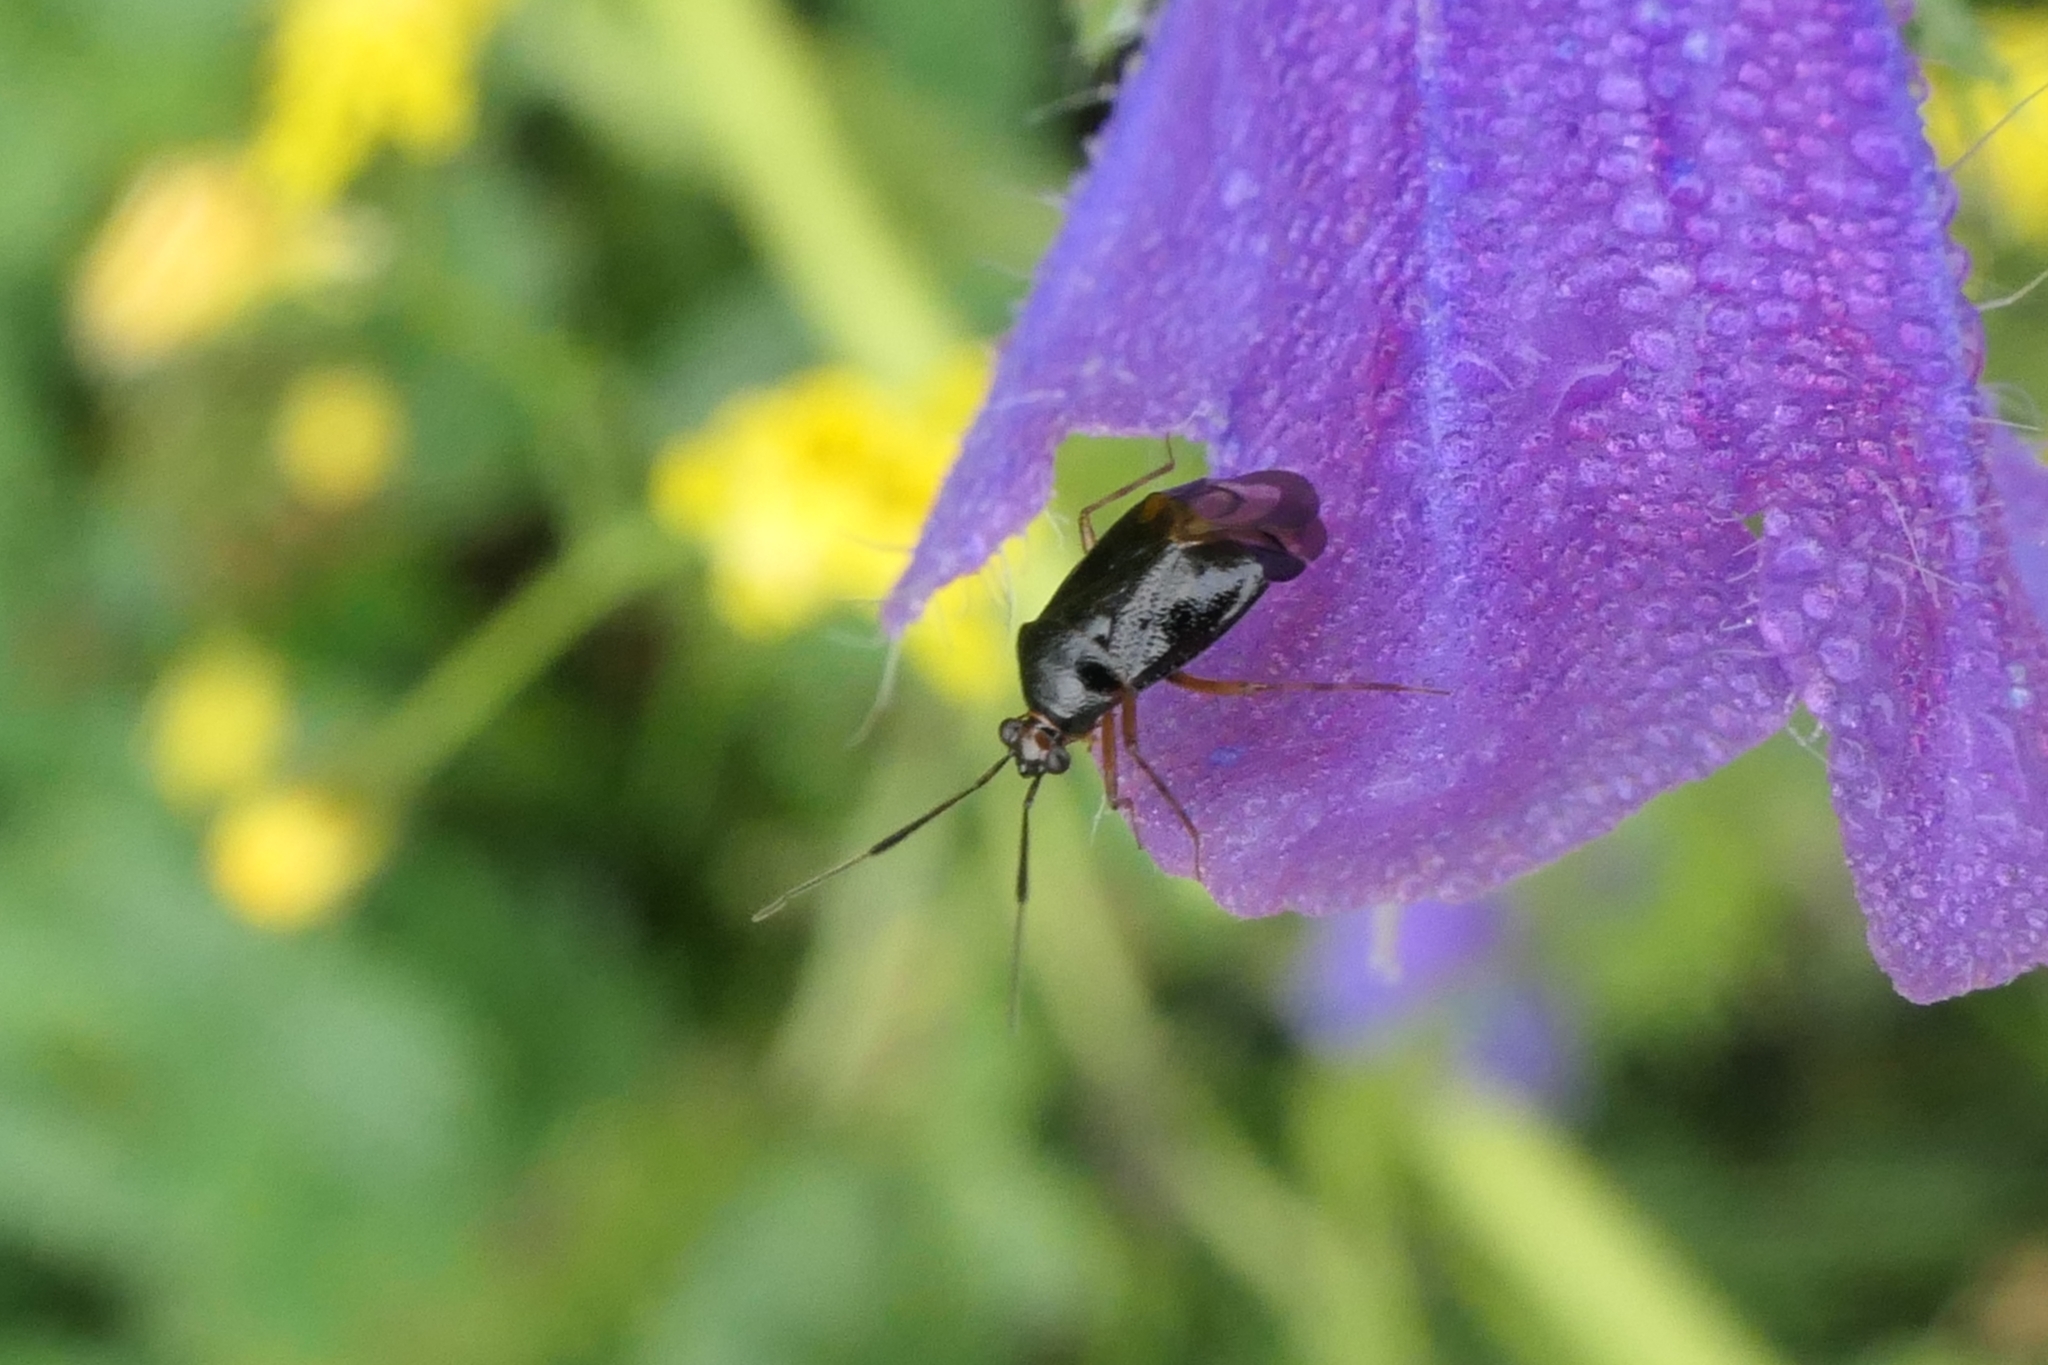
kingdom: Animalia
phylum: Arthropoda
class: Insecta
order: Hemiptera
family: Miridae
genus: Deraeocoris
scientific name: Deraeocoris maoricus
